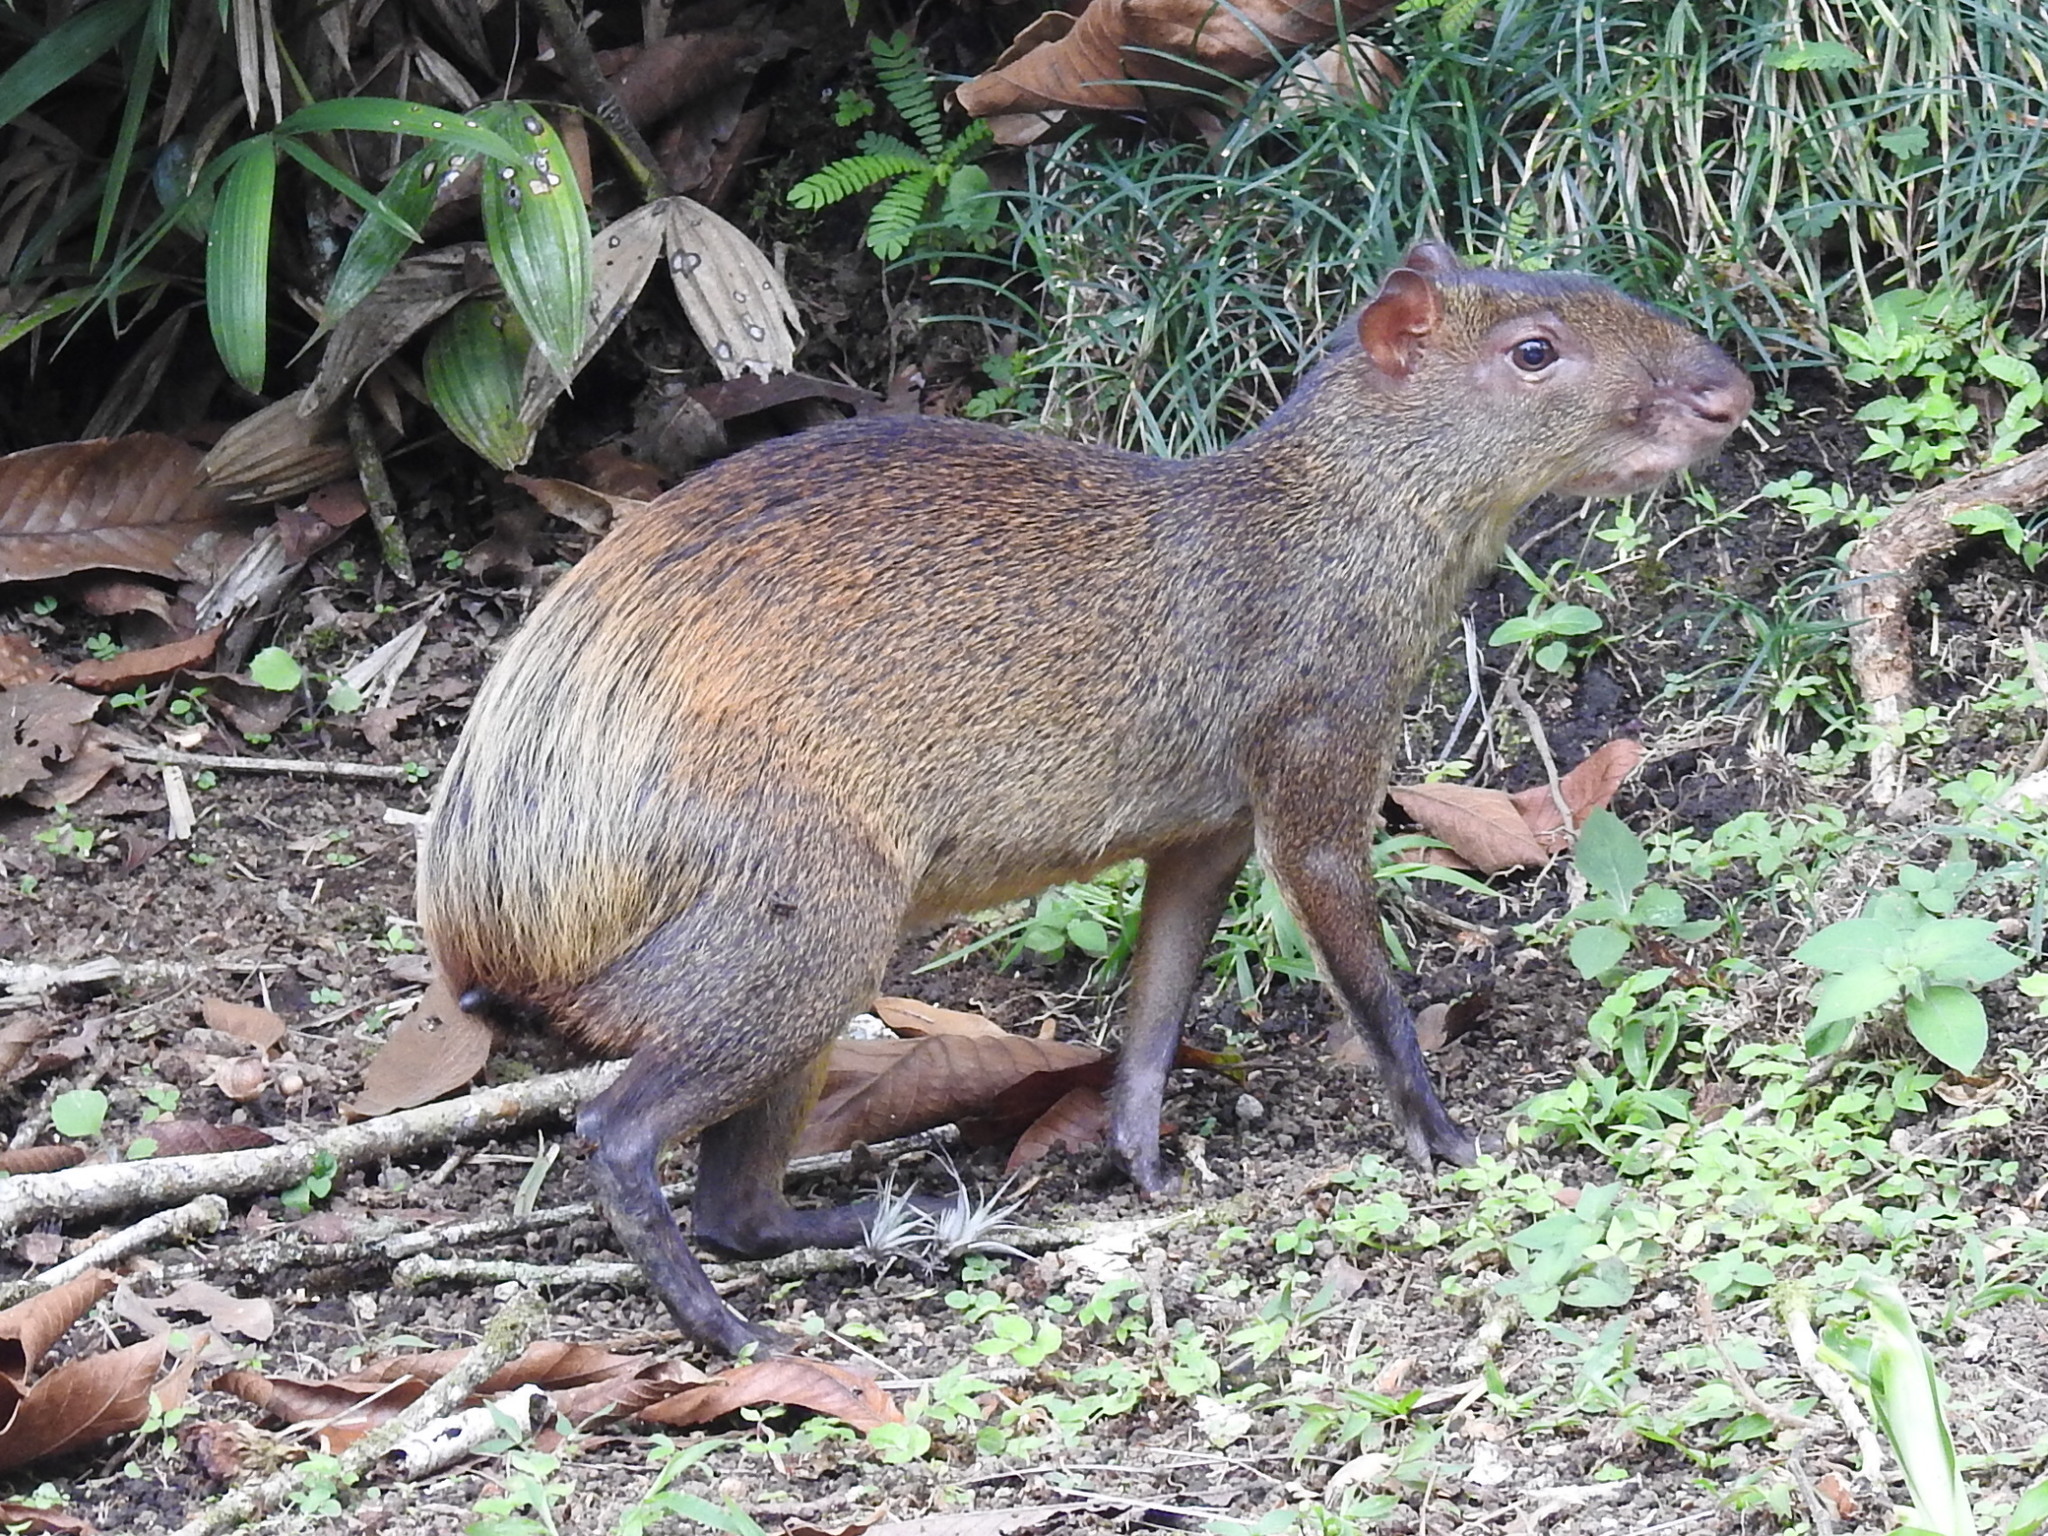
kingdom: Animalia
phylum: Chordata
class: Mammalia
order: Rodentia
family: Dasyproctidae
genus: Dasyprocta
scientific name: Dasyprocta punctata
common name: Central american agouti
